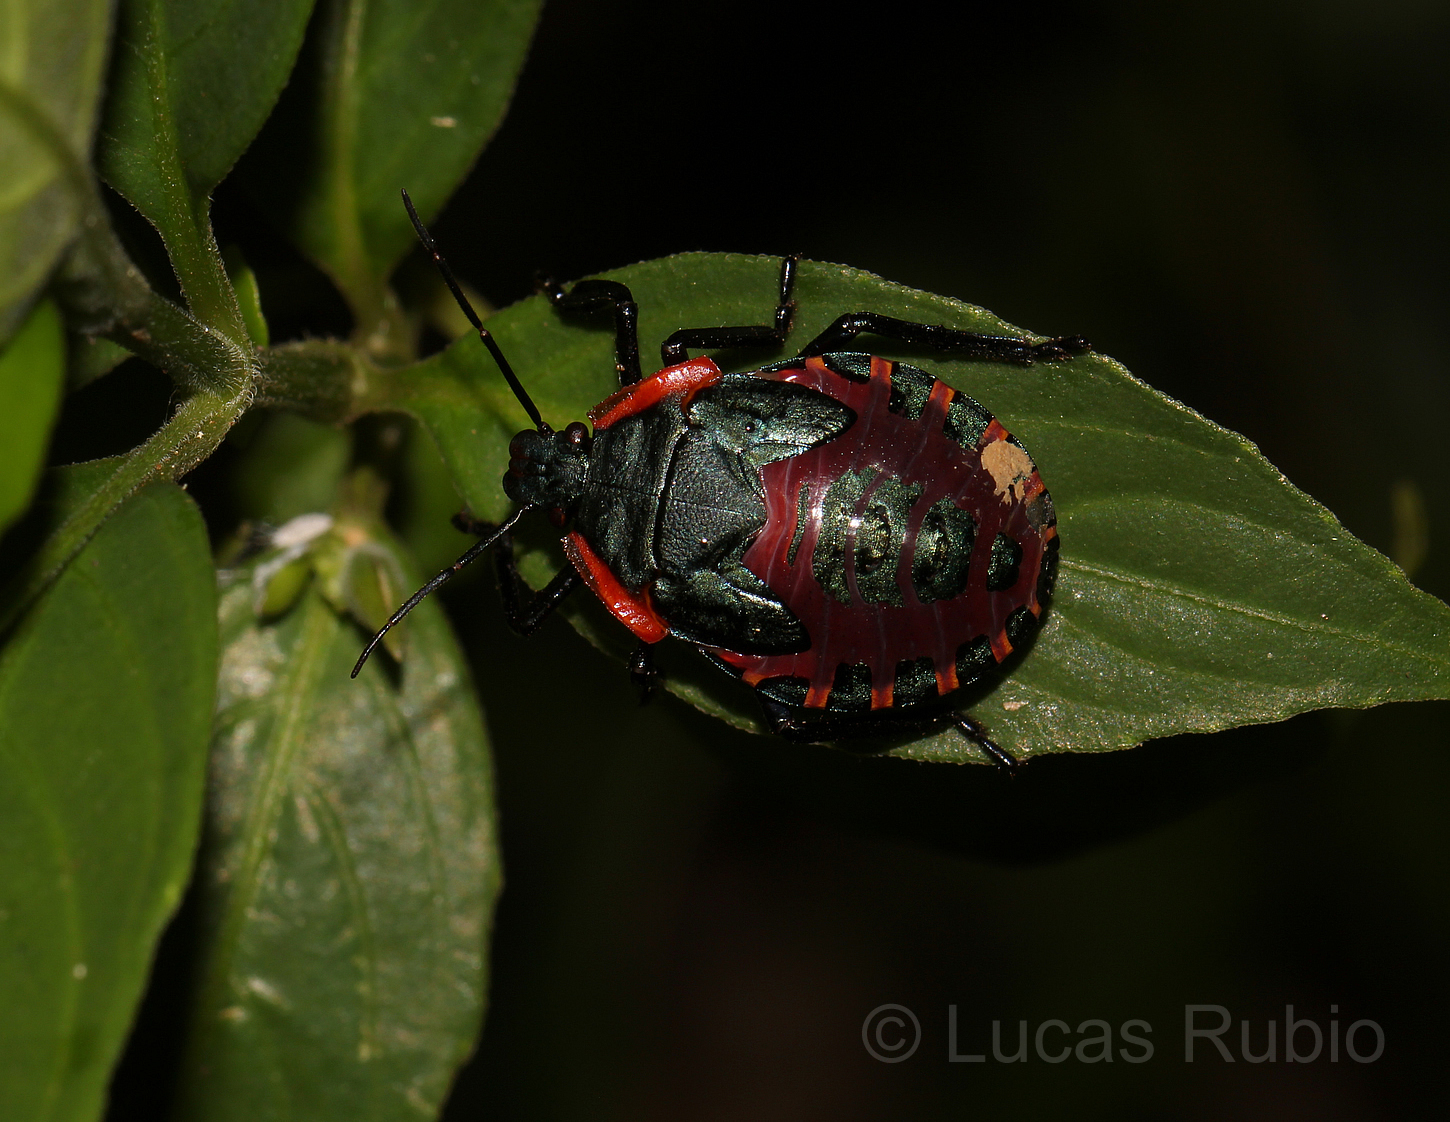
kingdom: Animalia
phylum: Arthropoda
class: Insecta
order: Hemiptera
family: Pentatomidae
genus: Alcaeorrhynchus
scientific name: Alcaeorrhynchus grandis
